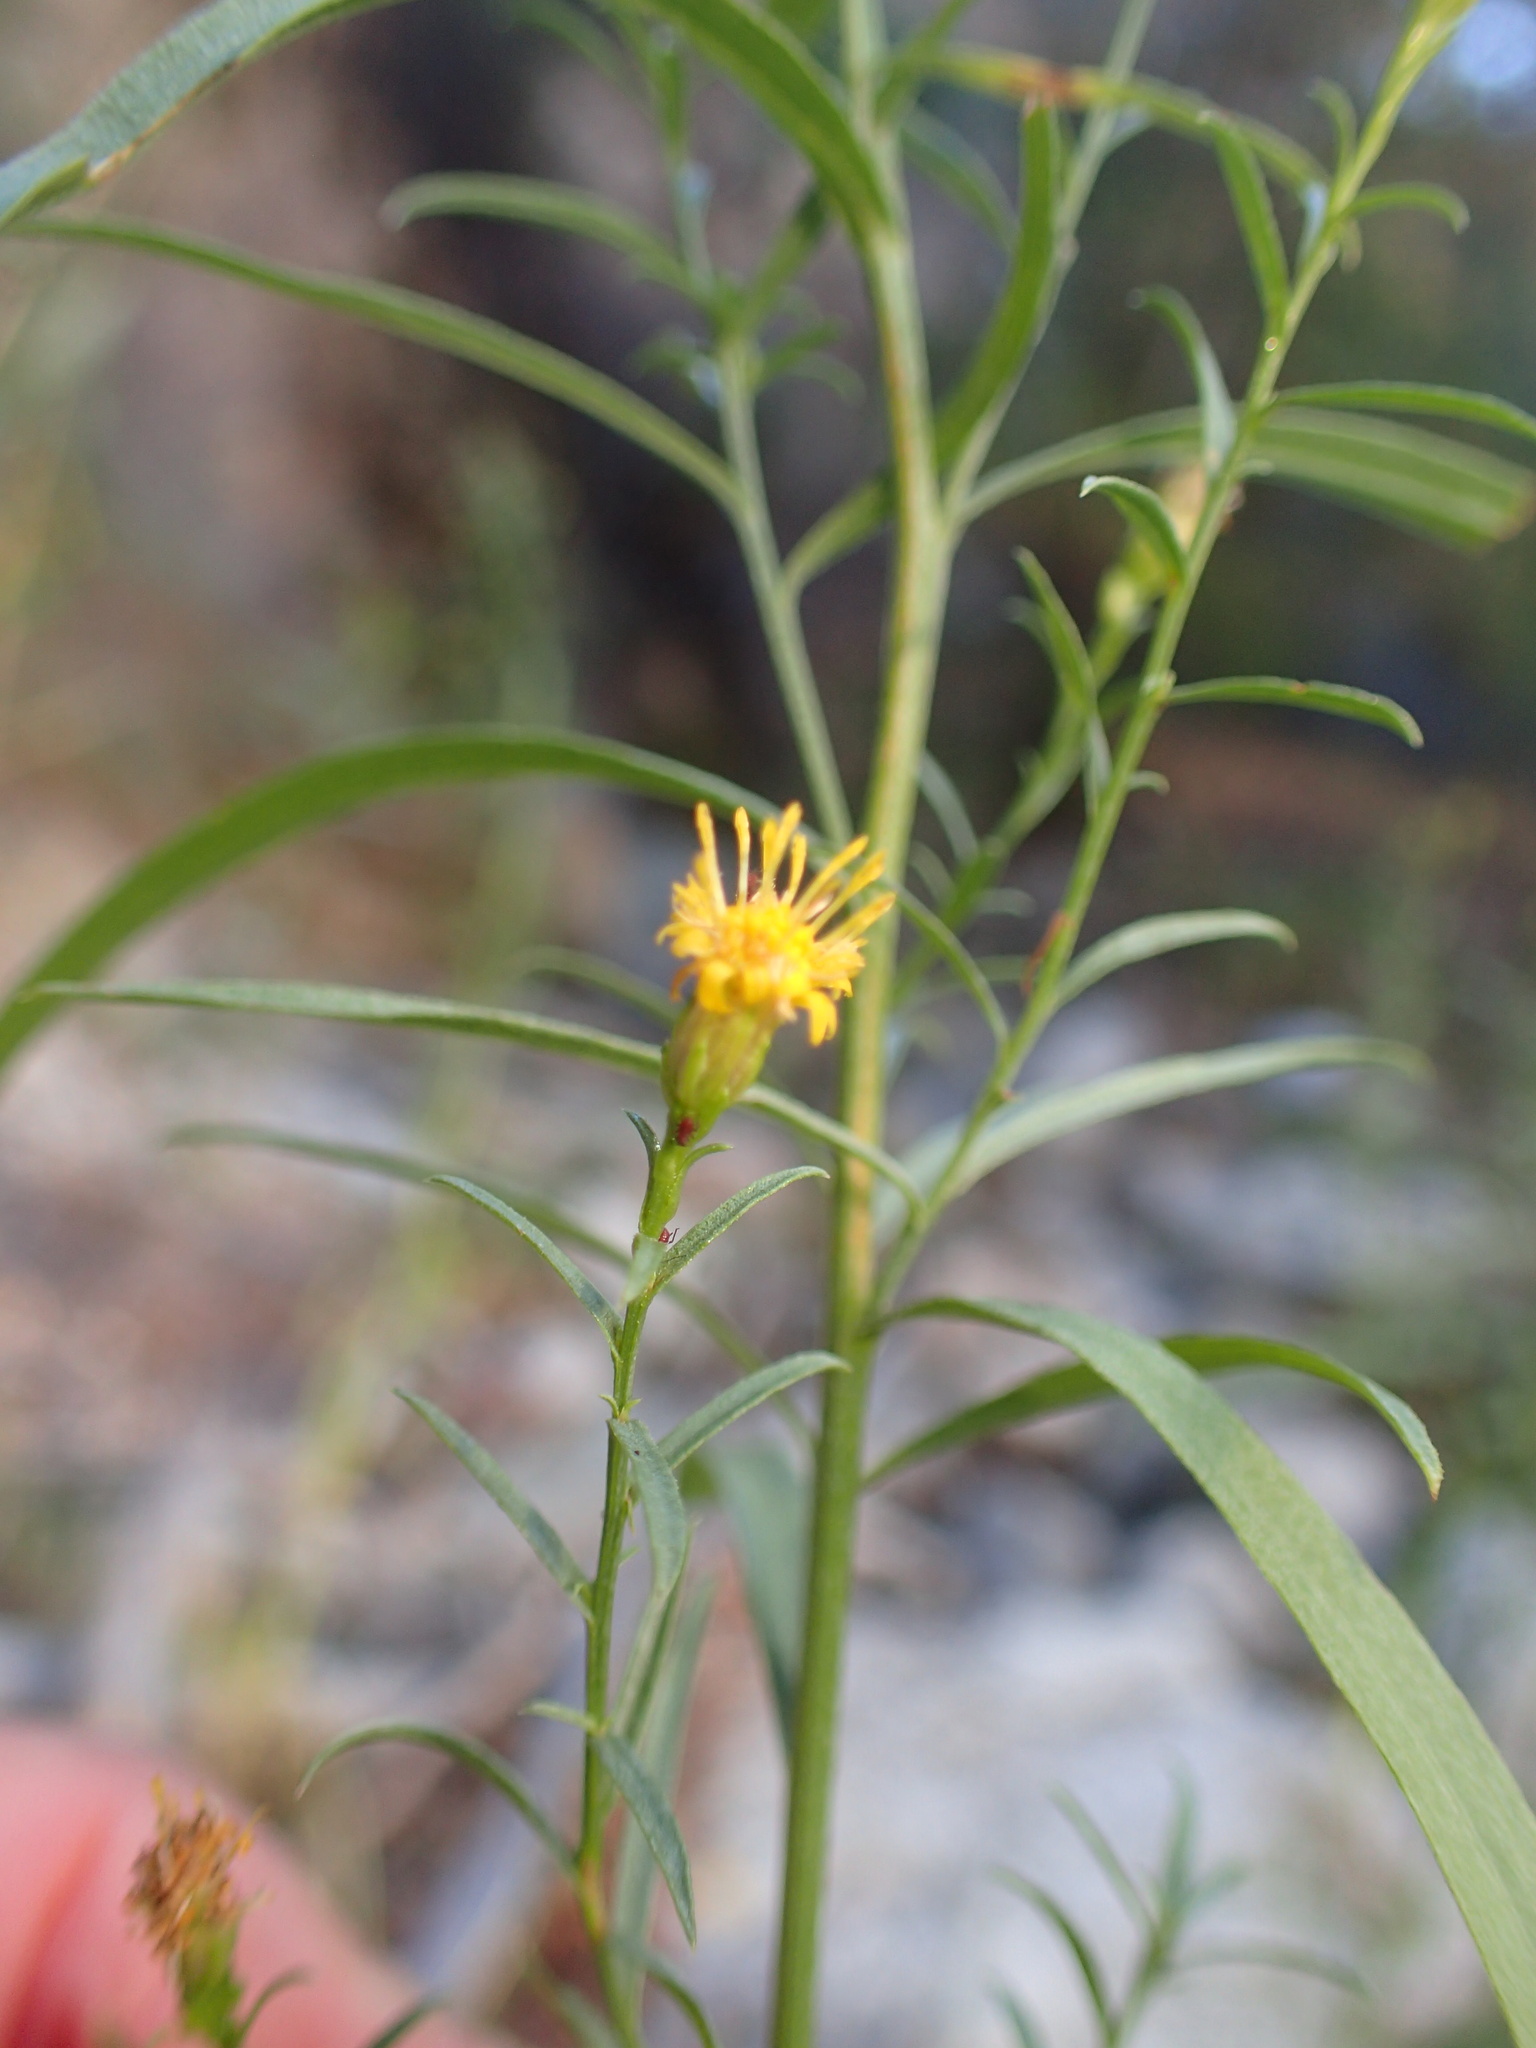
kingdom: Plantae
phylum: Tracheophyta
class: Magnoliopsida
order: Asterales
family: Asteraceae
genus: Euthamia
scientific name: Euthamia occidentalis
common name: Western goldentop
